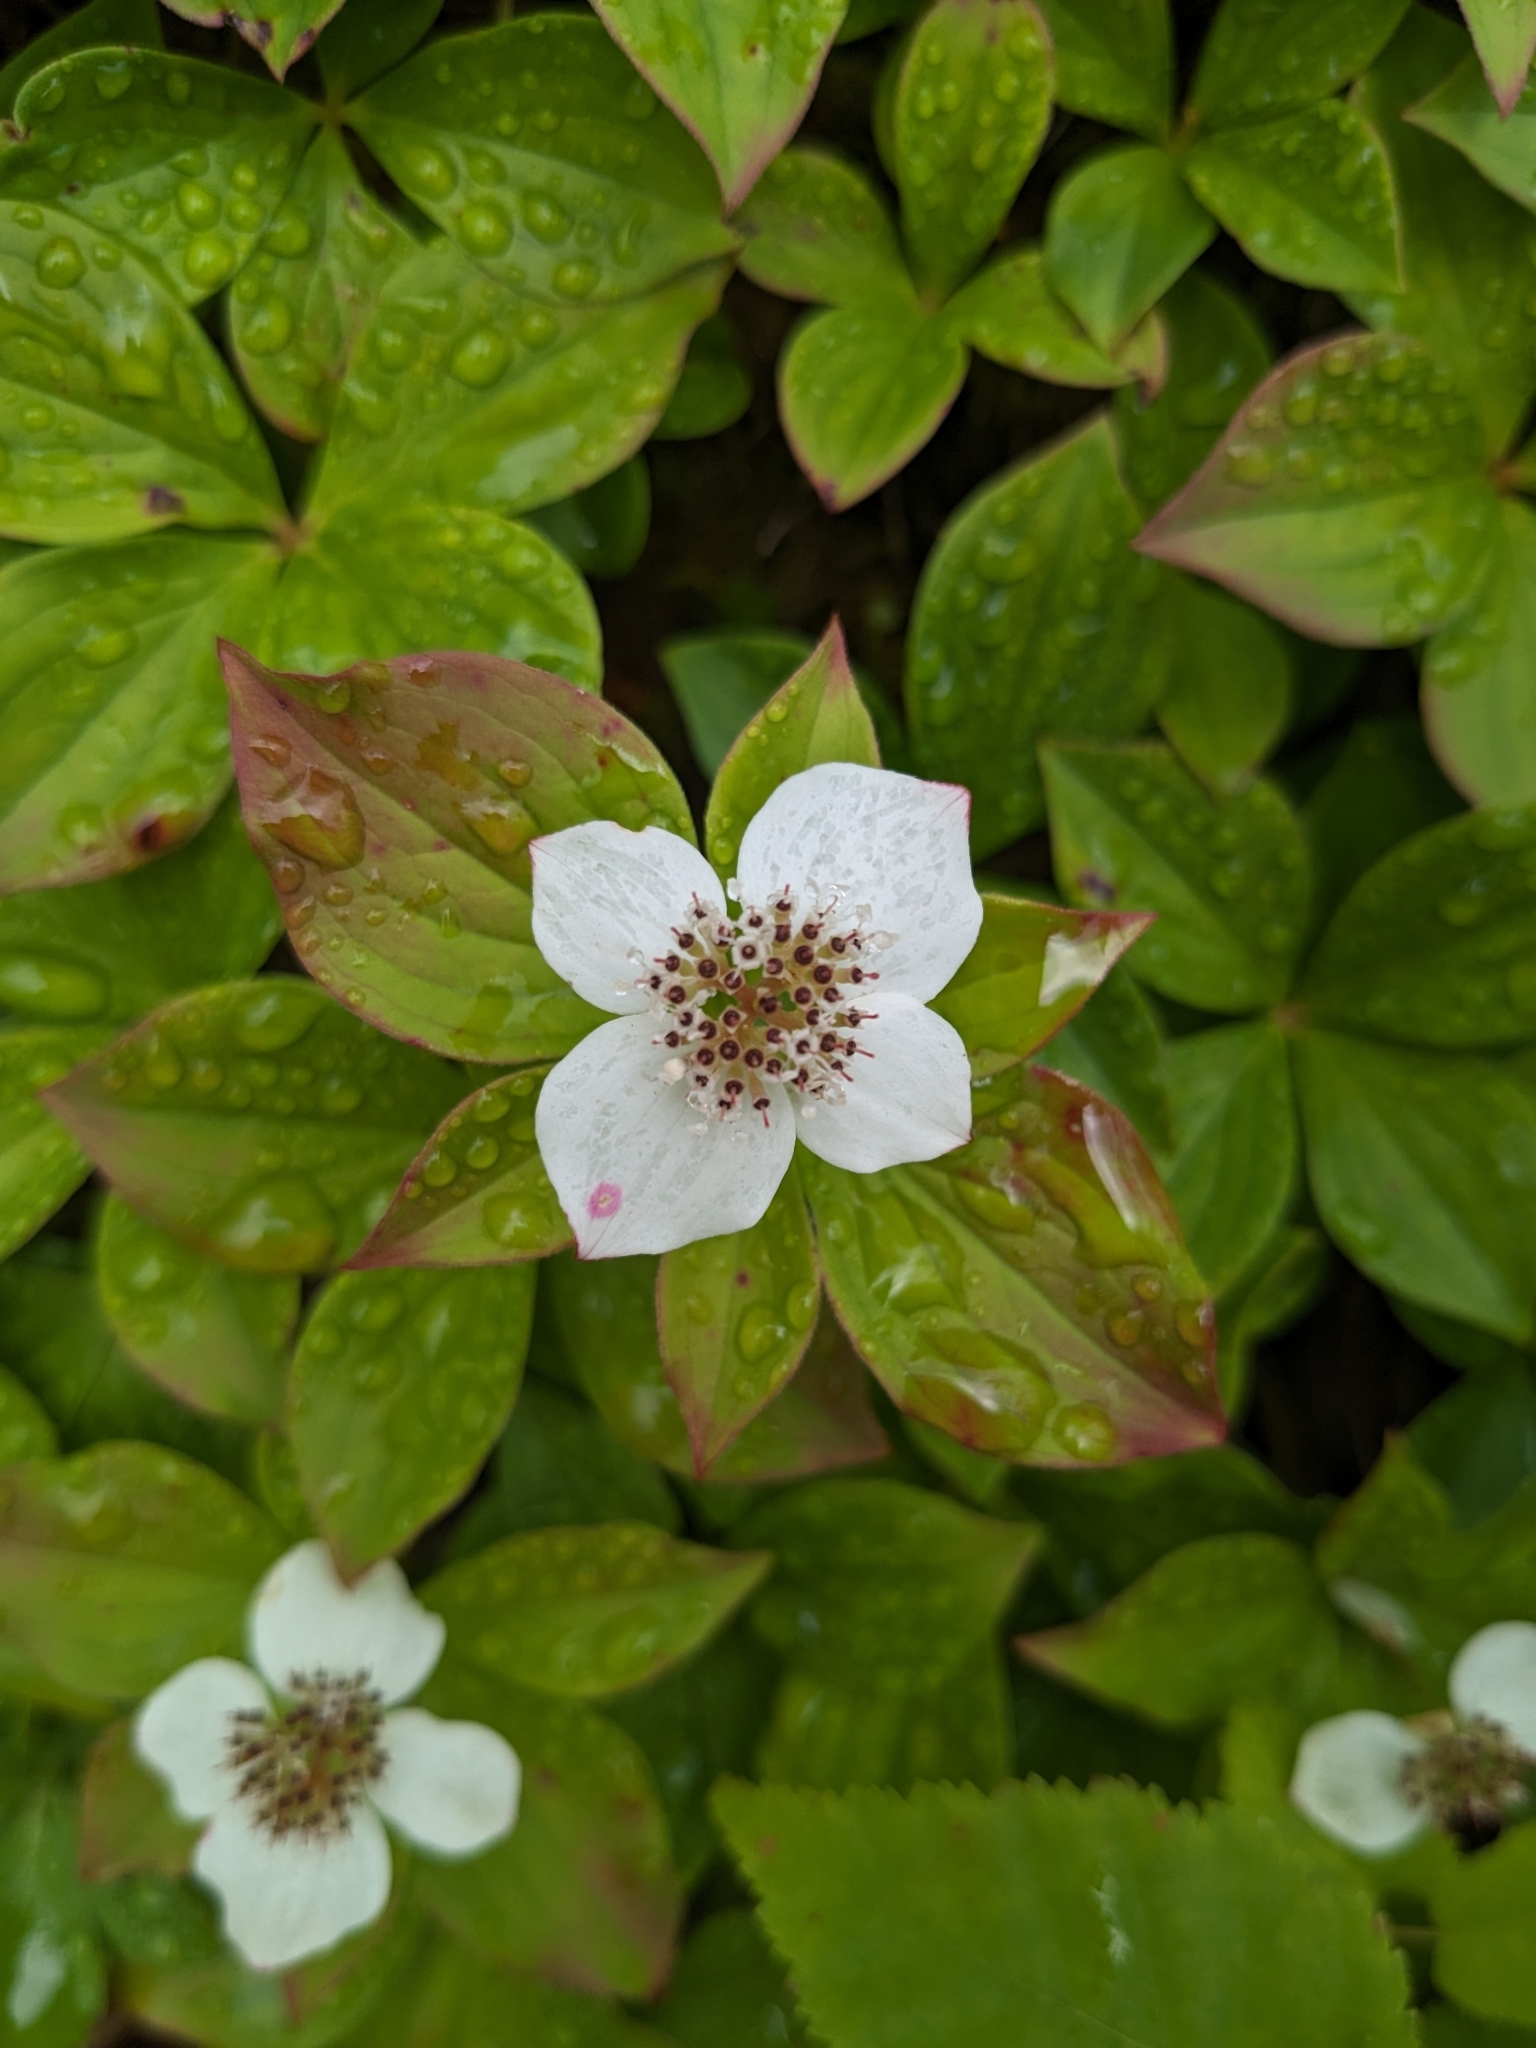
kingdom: Plantae
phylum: Tracheophyta
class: Magnoliopsida
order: Cornales
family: Cornaceae
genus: Cornus
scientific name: Cornus canadensis
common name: Creeping dogwood
